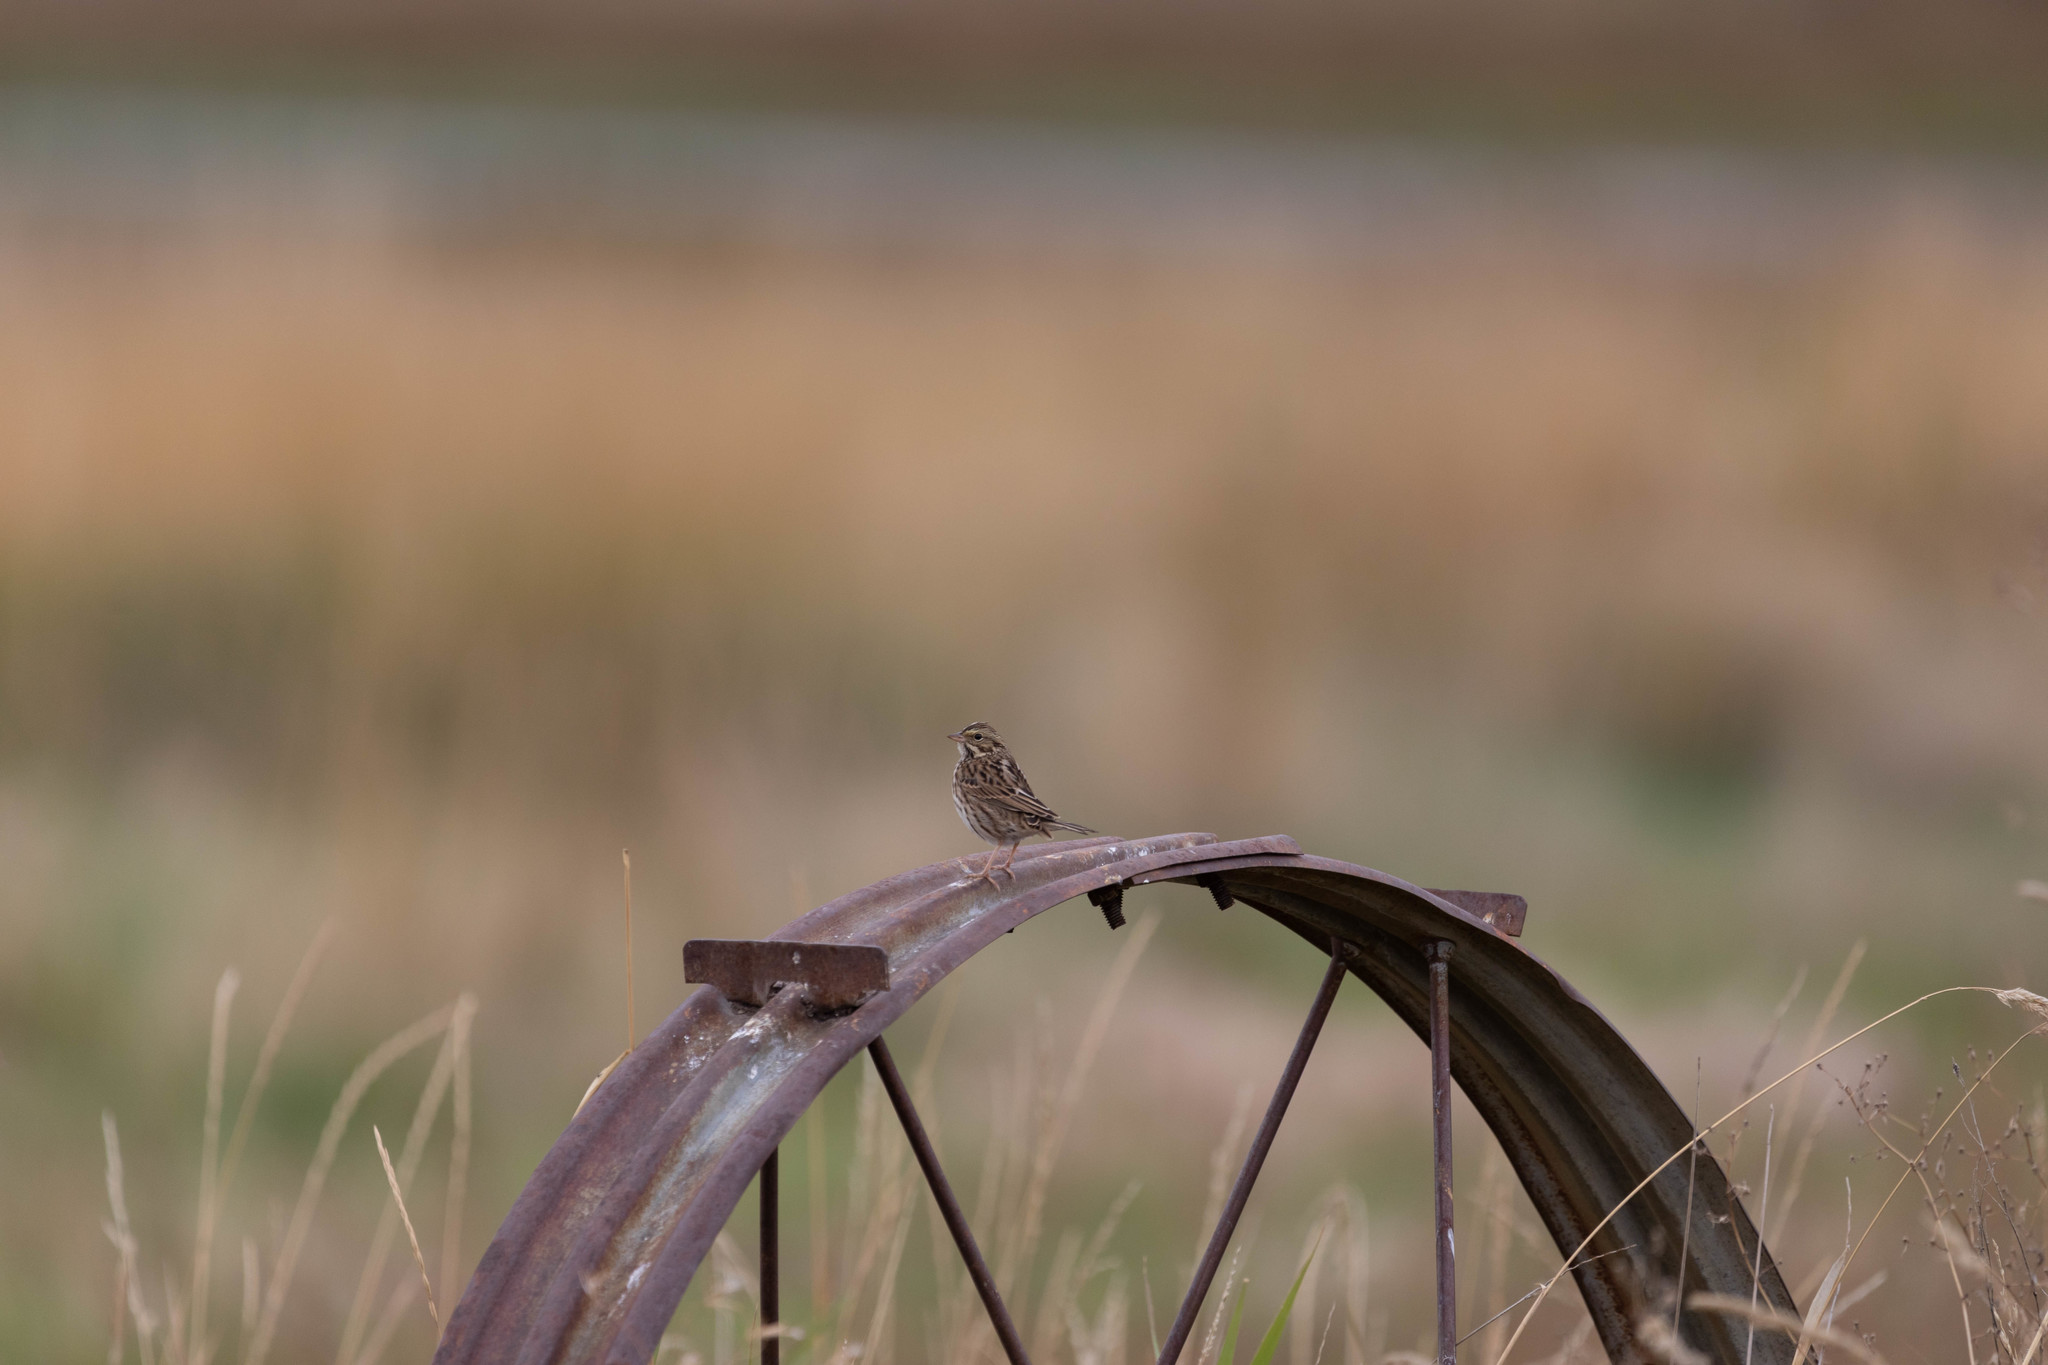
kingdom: Animalia
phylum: Chordata
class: Aves
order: Passeriformes
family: Passerellidae
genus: Passerculus
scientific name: Passerculus sandwichensis
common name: Savannah sparrow
